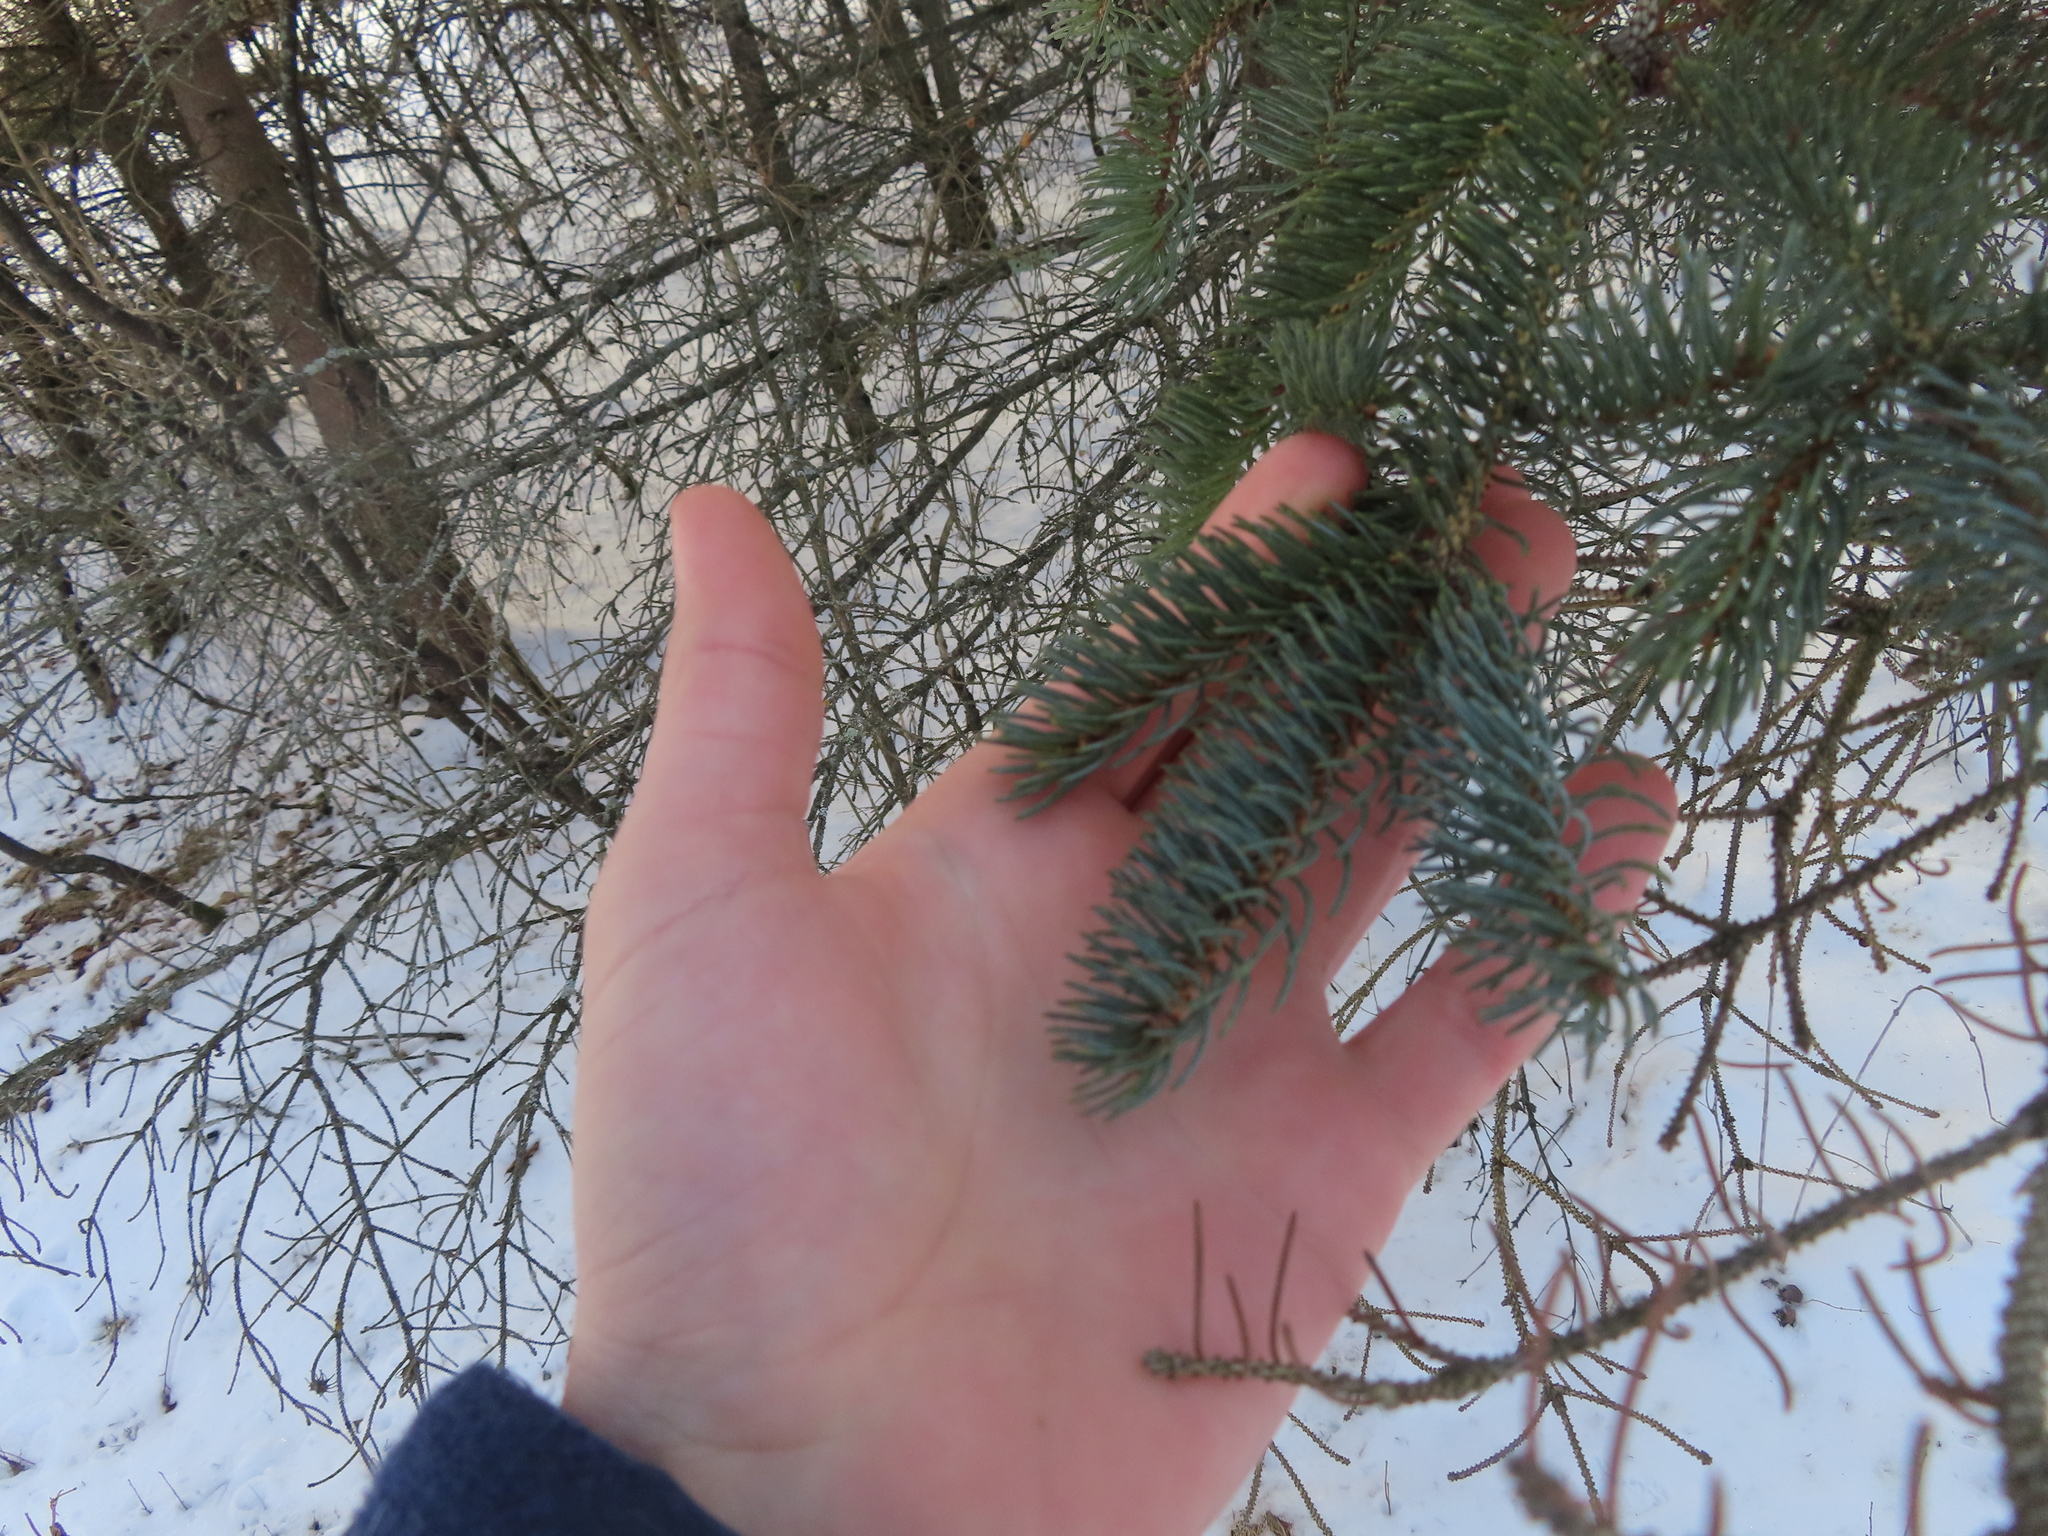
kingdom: Plantae
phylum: Tracheophyta
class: Pinopsida
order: Pinales
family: Pinaceae
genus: Picea
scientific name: Picea glauca
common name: White spruce
